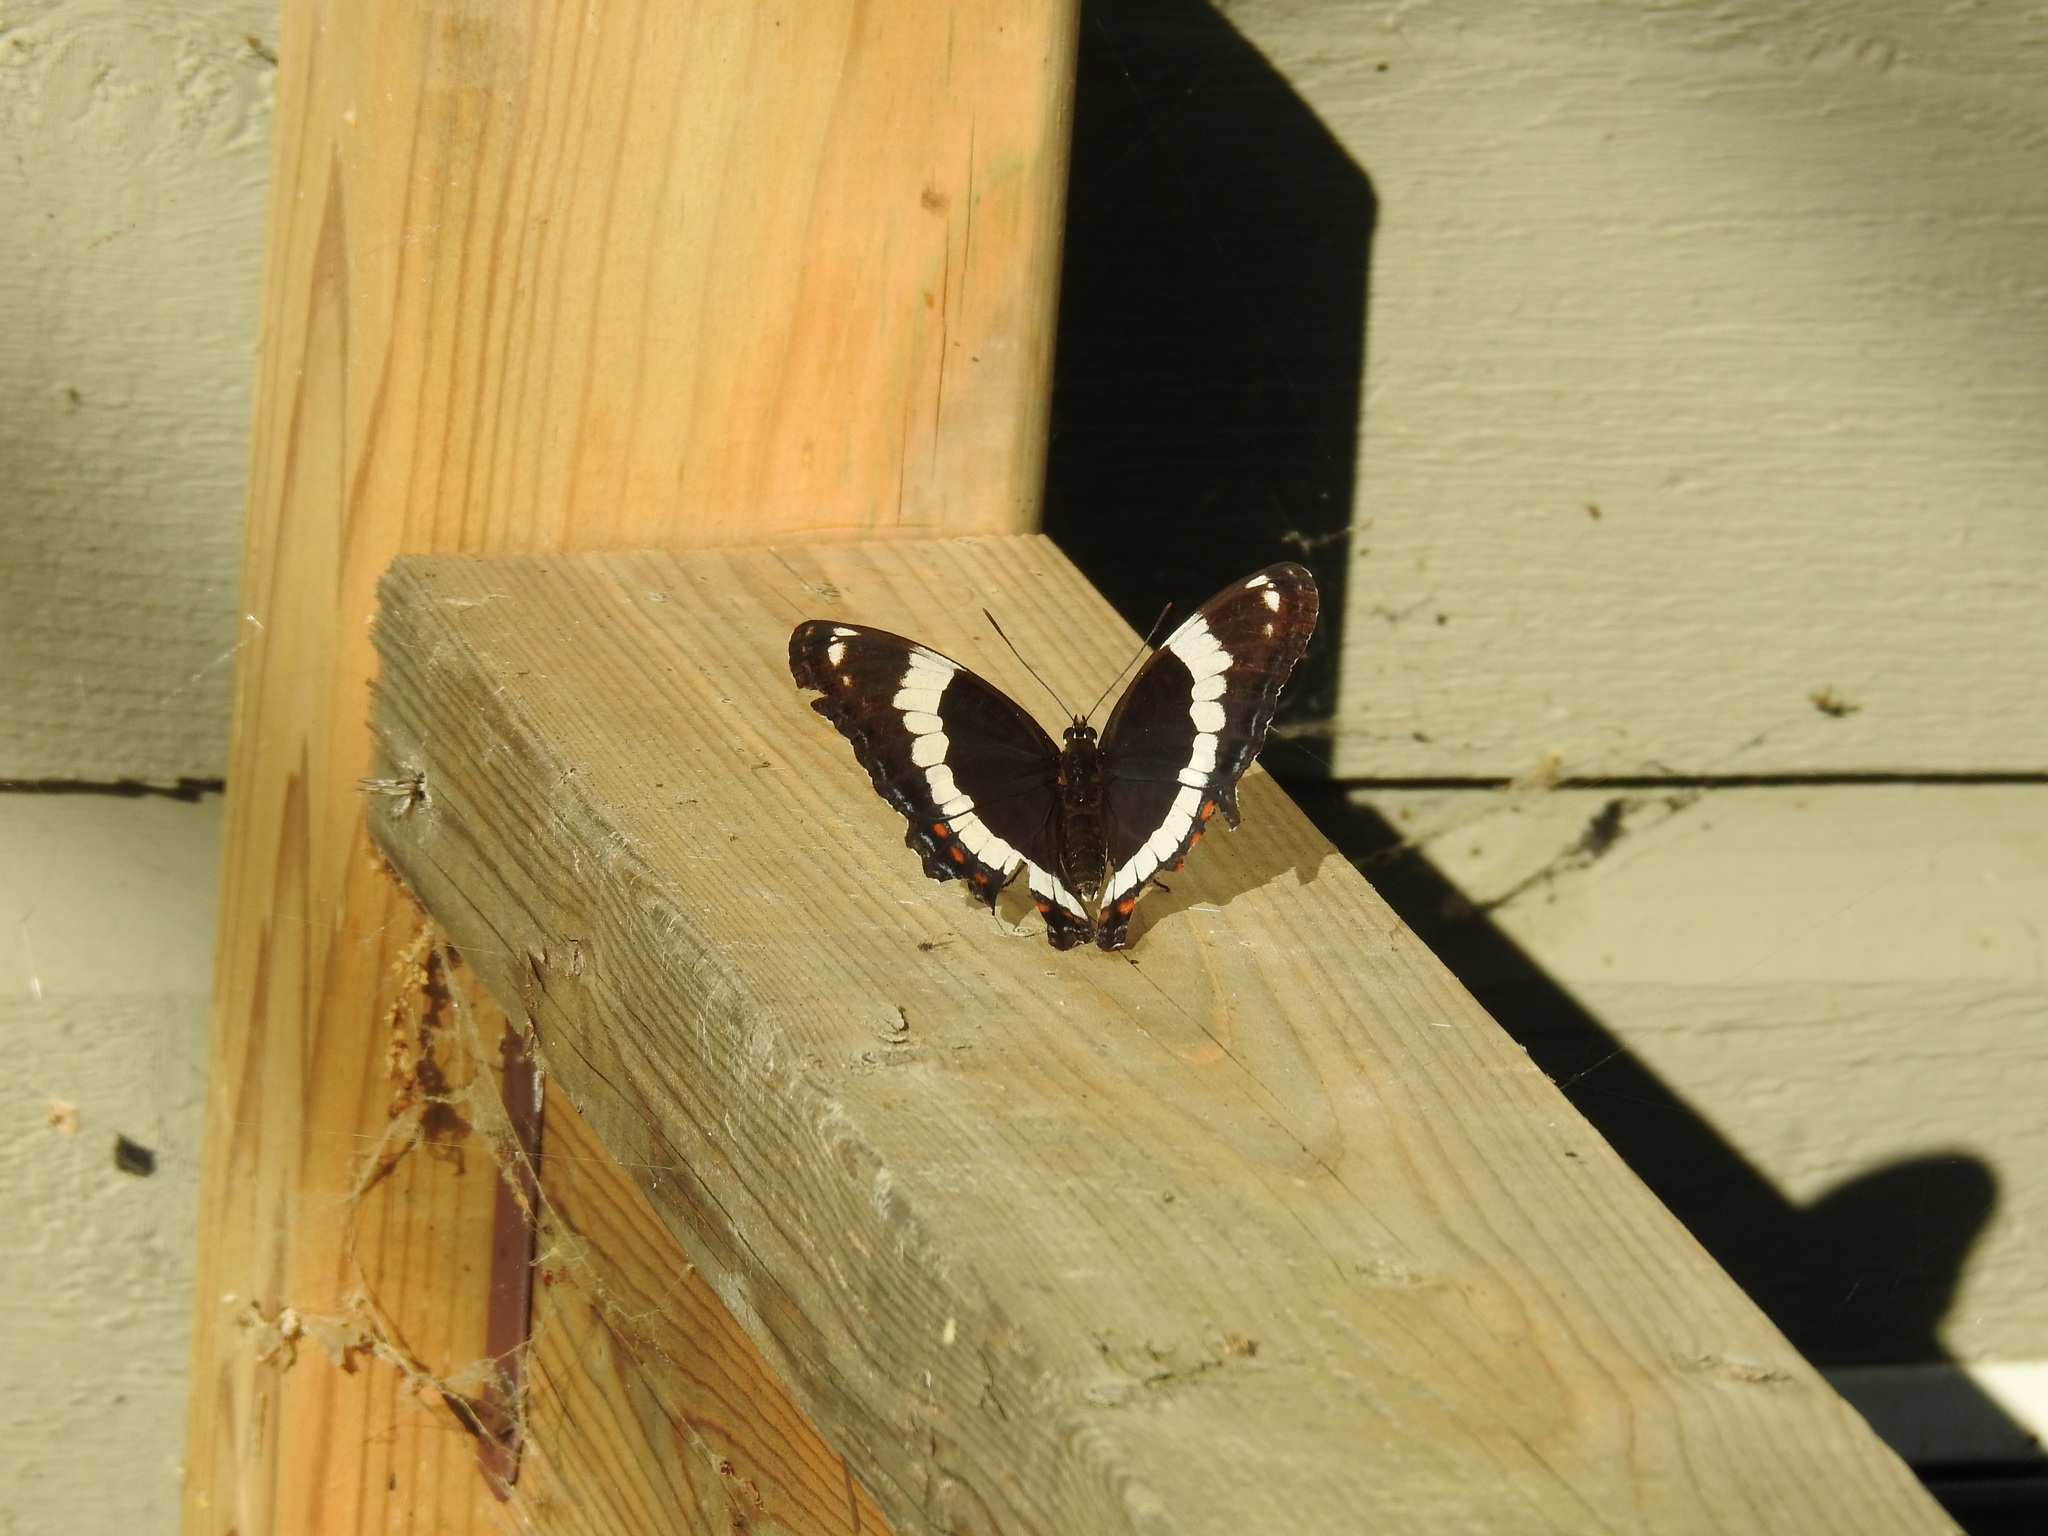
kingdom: Animalia
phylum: Arthropoda
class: Insecta
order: Lepidoptera
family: Nymphalidae
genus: Limenitis
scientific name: Limenitis arthemis
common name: Red-spotted admiral
